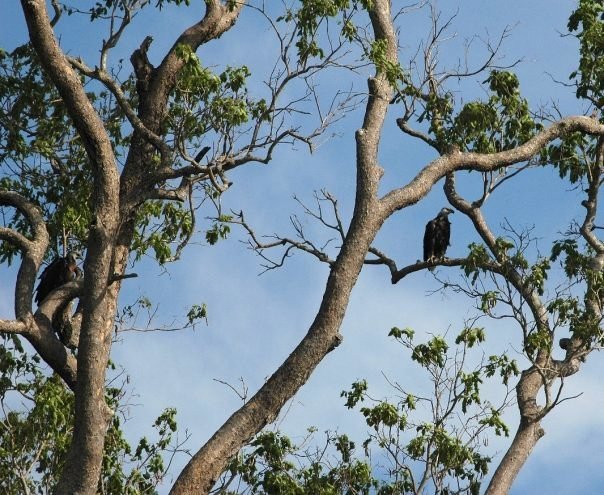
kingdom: Animalia
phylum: Chordata
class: Aves
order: Accipitriformes
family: Accipitridae
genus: Haliaeetus
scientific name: Haliaeetus vociferoides
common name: Madagascar fish eagle
